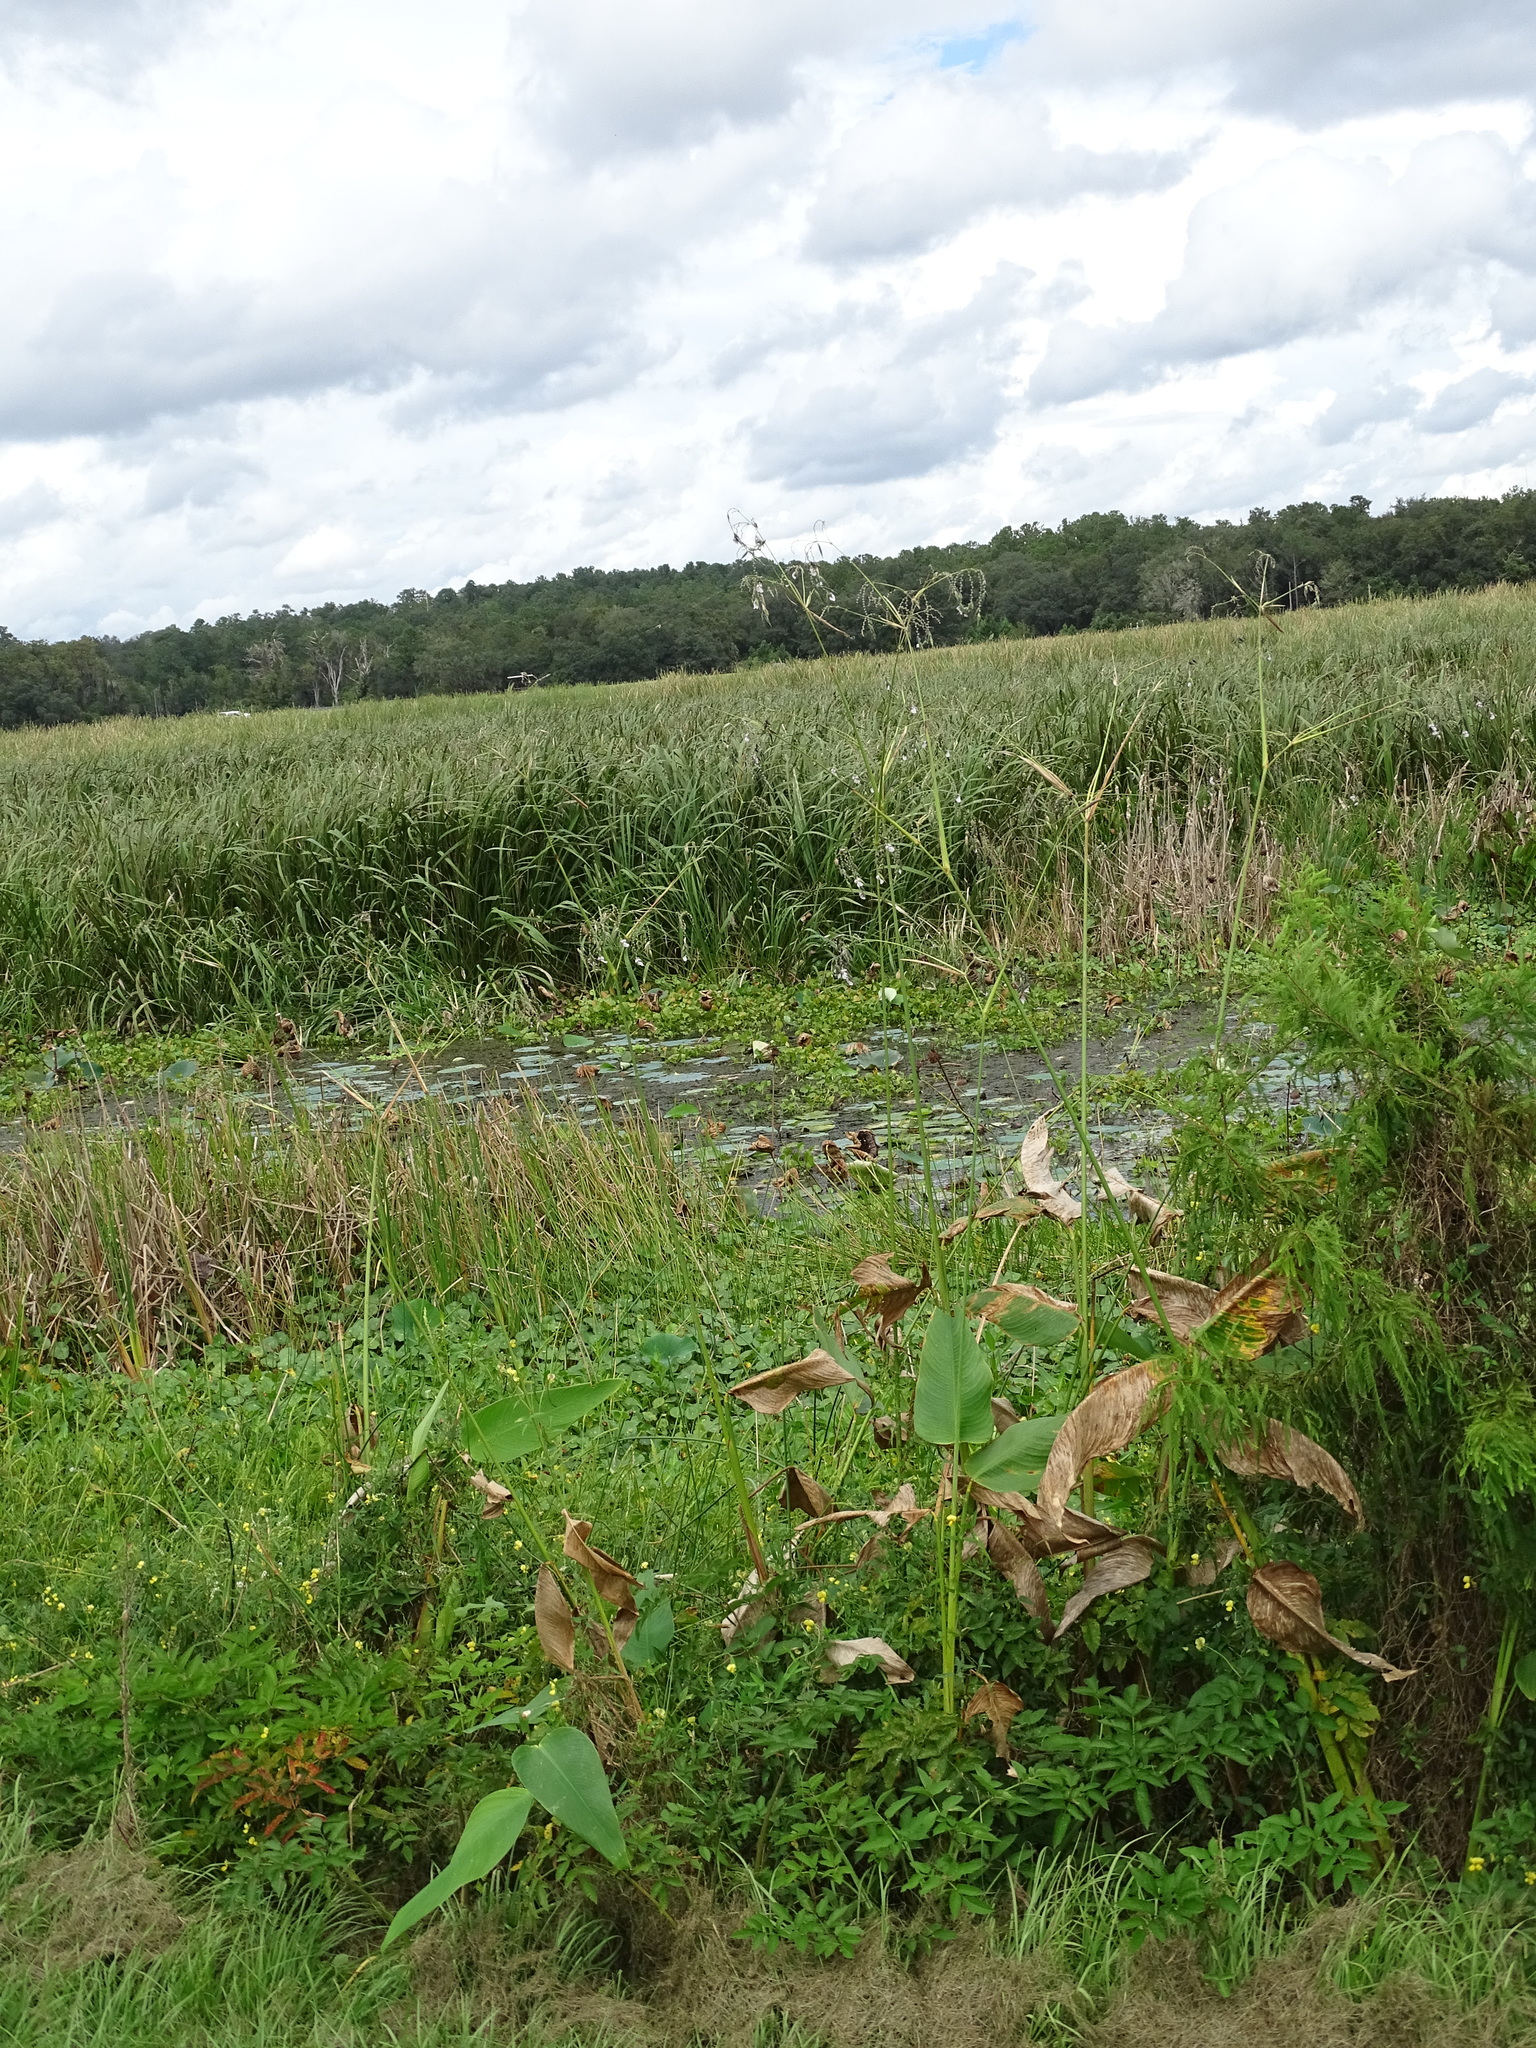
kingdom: Plantae
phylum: Tracheophyta
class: Liliopsida
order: Zingiberales
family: Marantaceae
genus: Thalia
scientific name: Thalia geniculata
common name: Arrowroot
